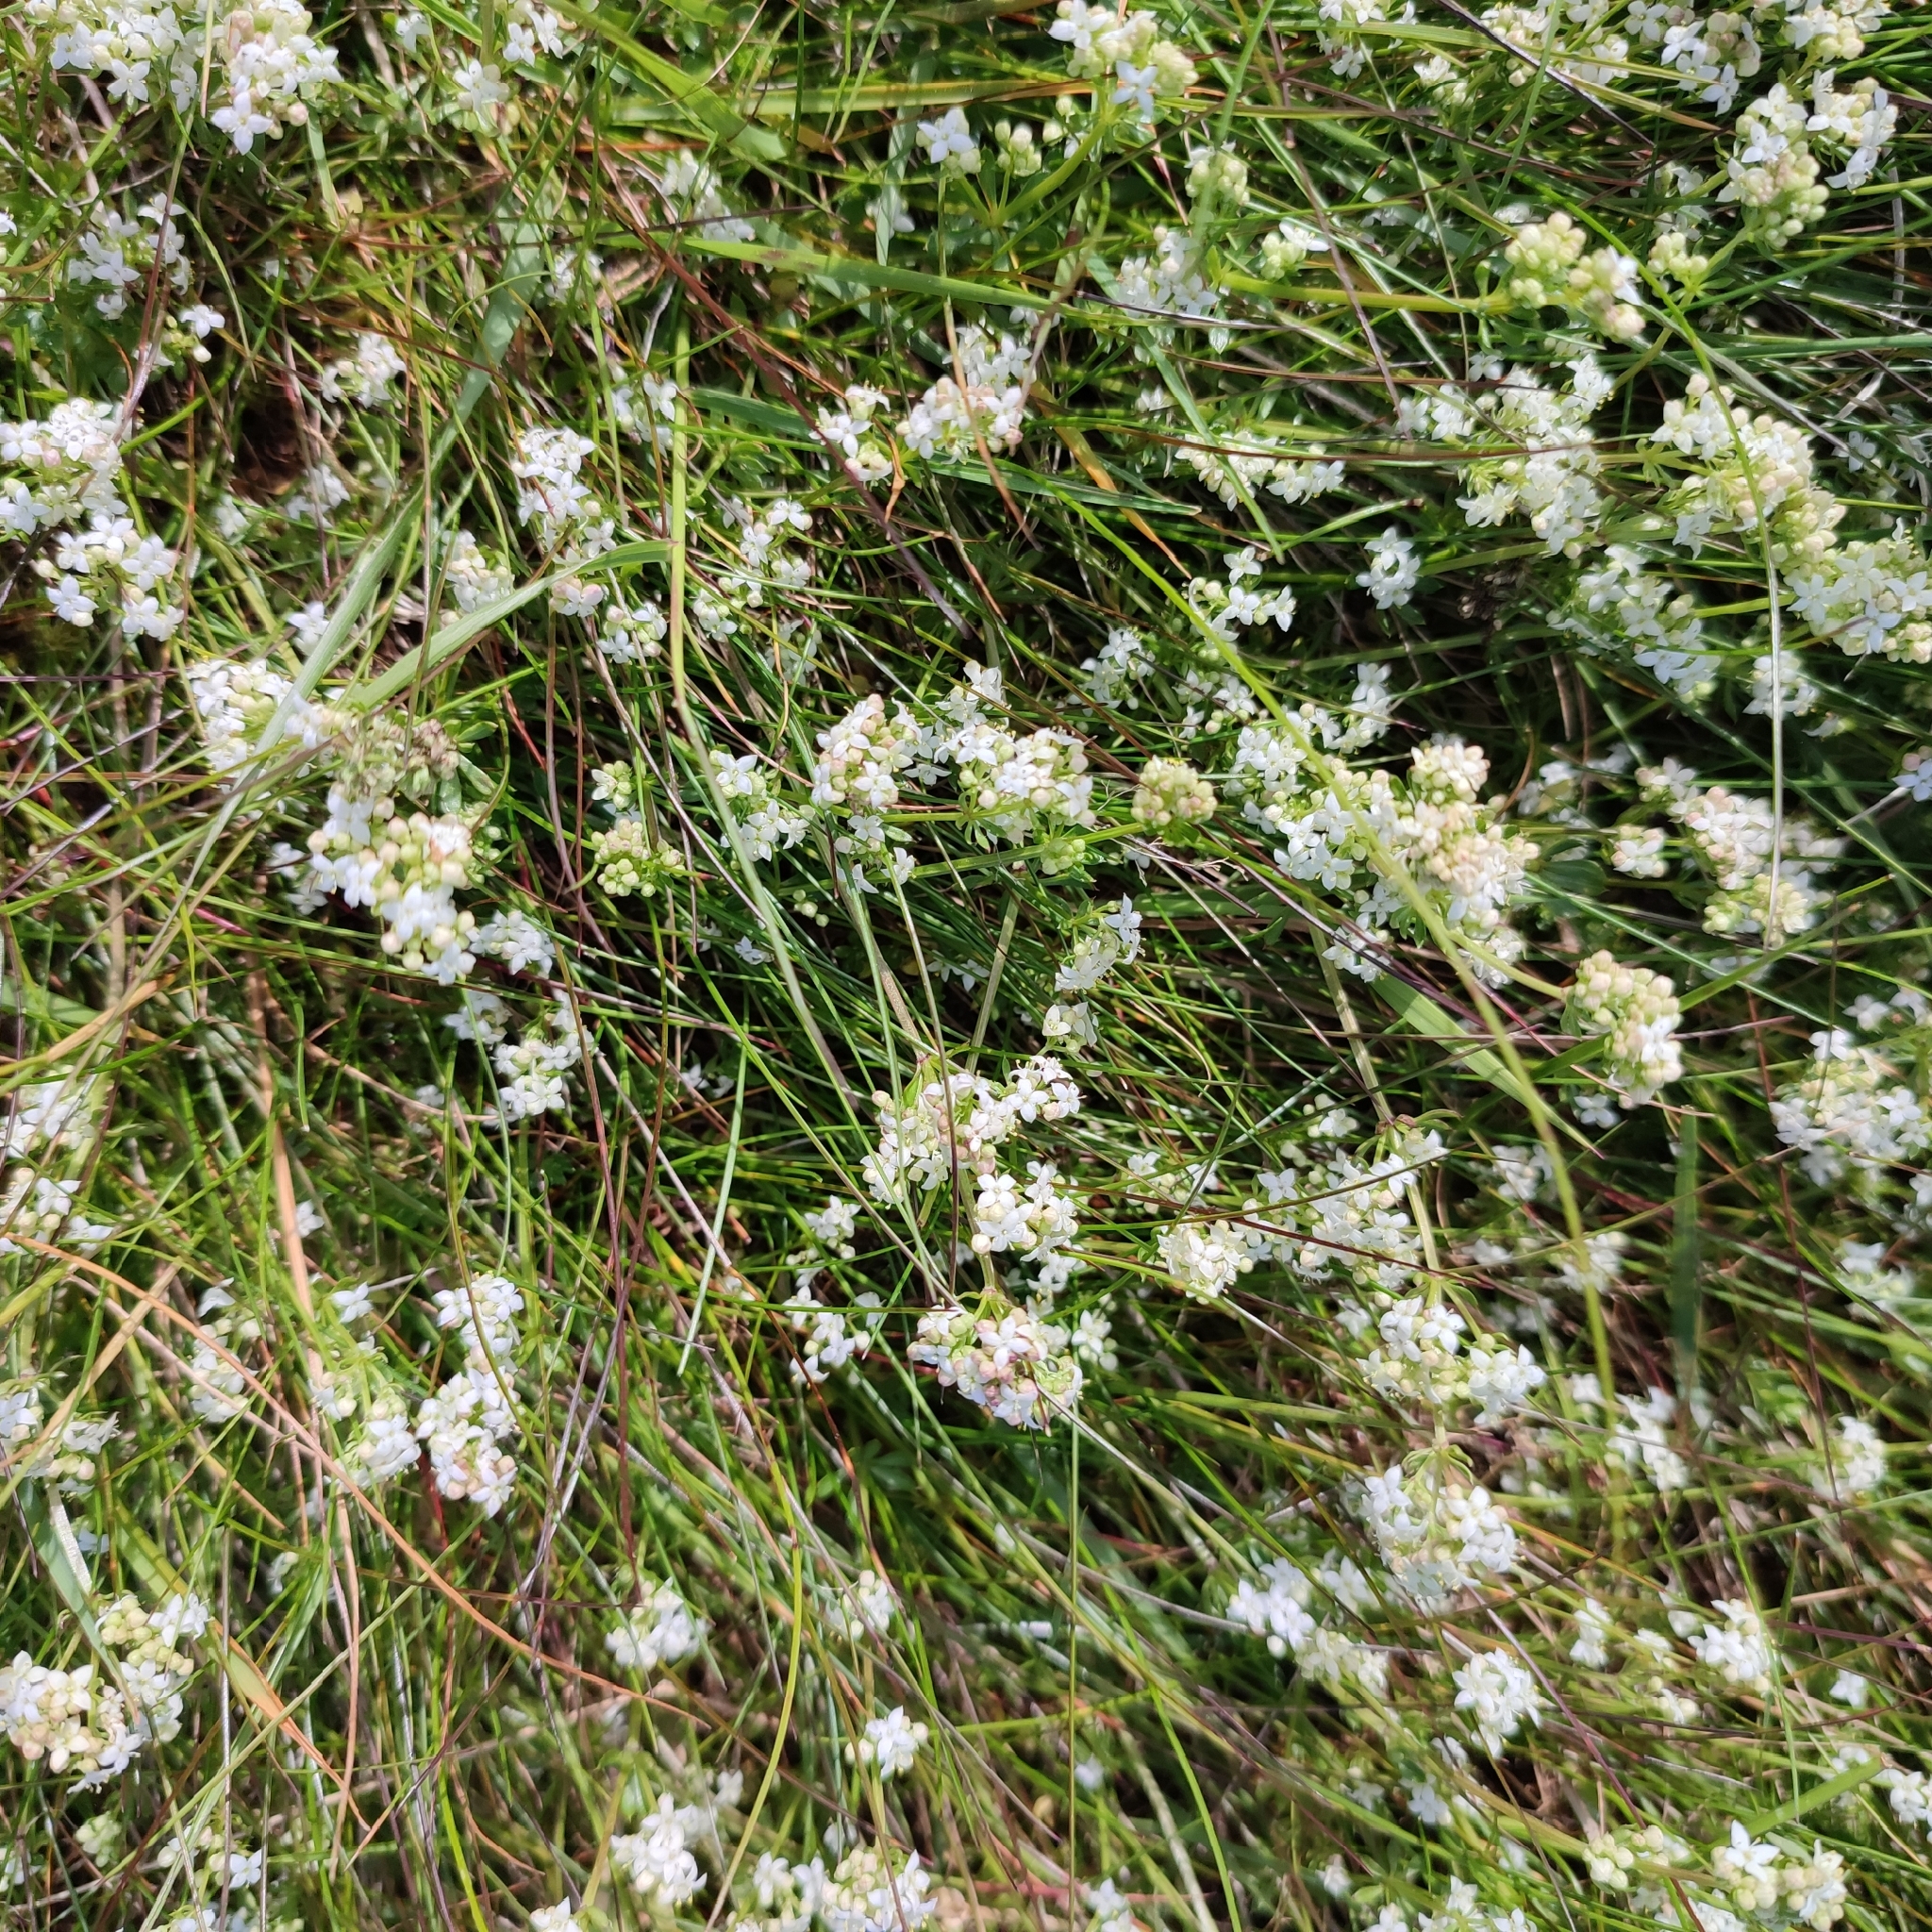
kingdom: Plantae
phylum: Tracheophyta
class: Magnoliopsida
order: Gentianales
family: Rubiaceae
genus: Galium
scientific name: Galium saxatile
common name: Heath bedstraw
